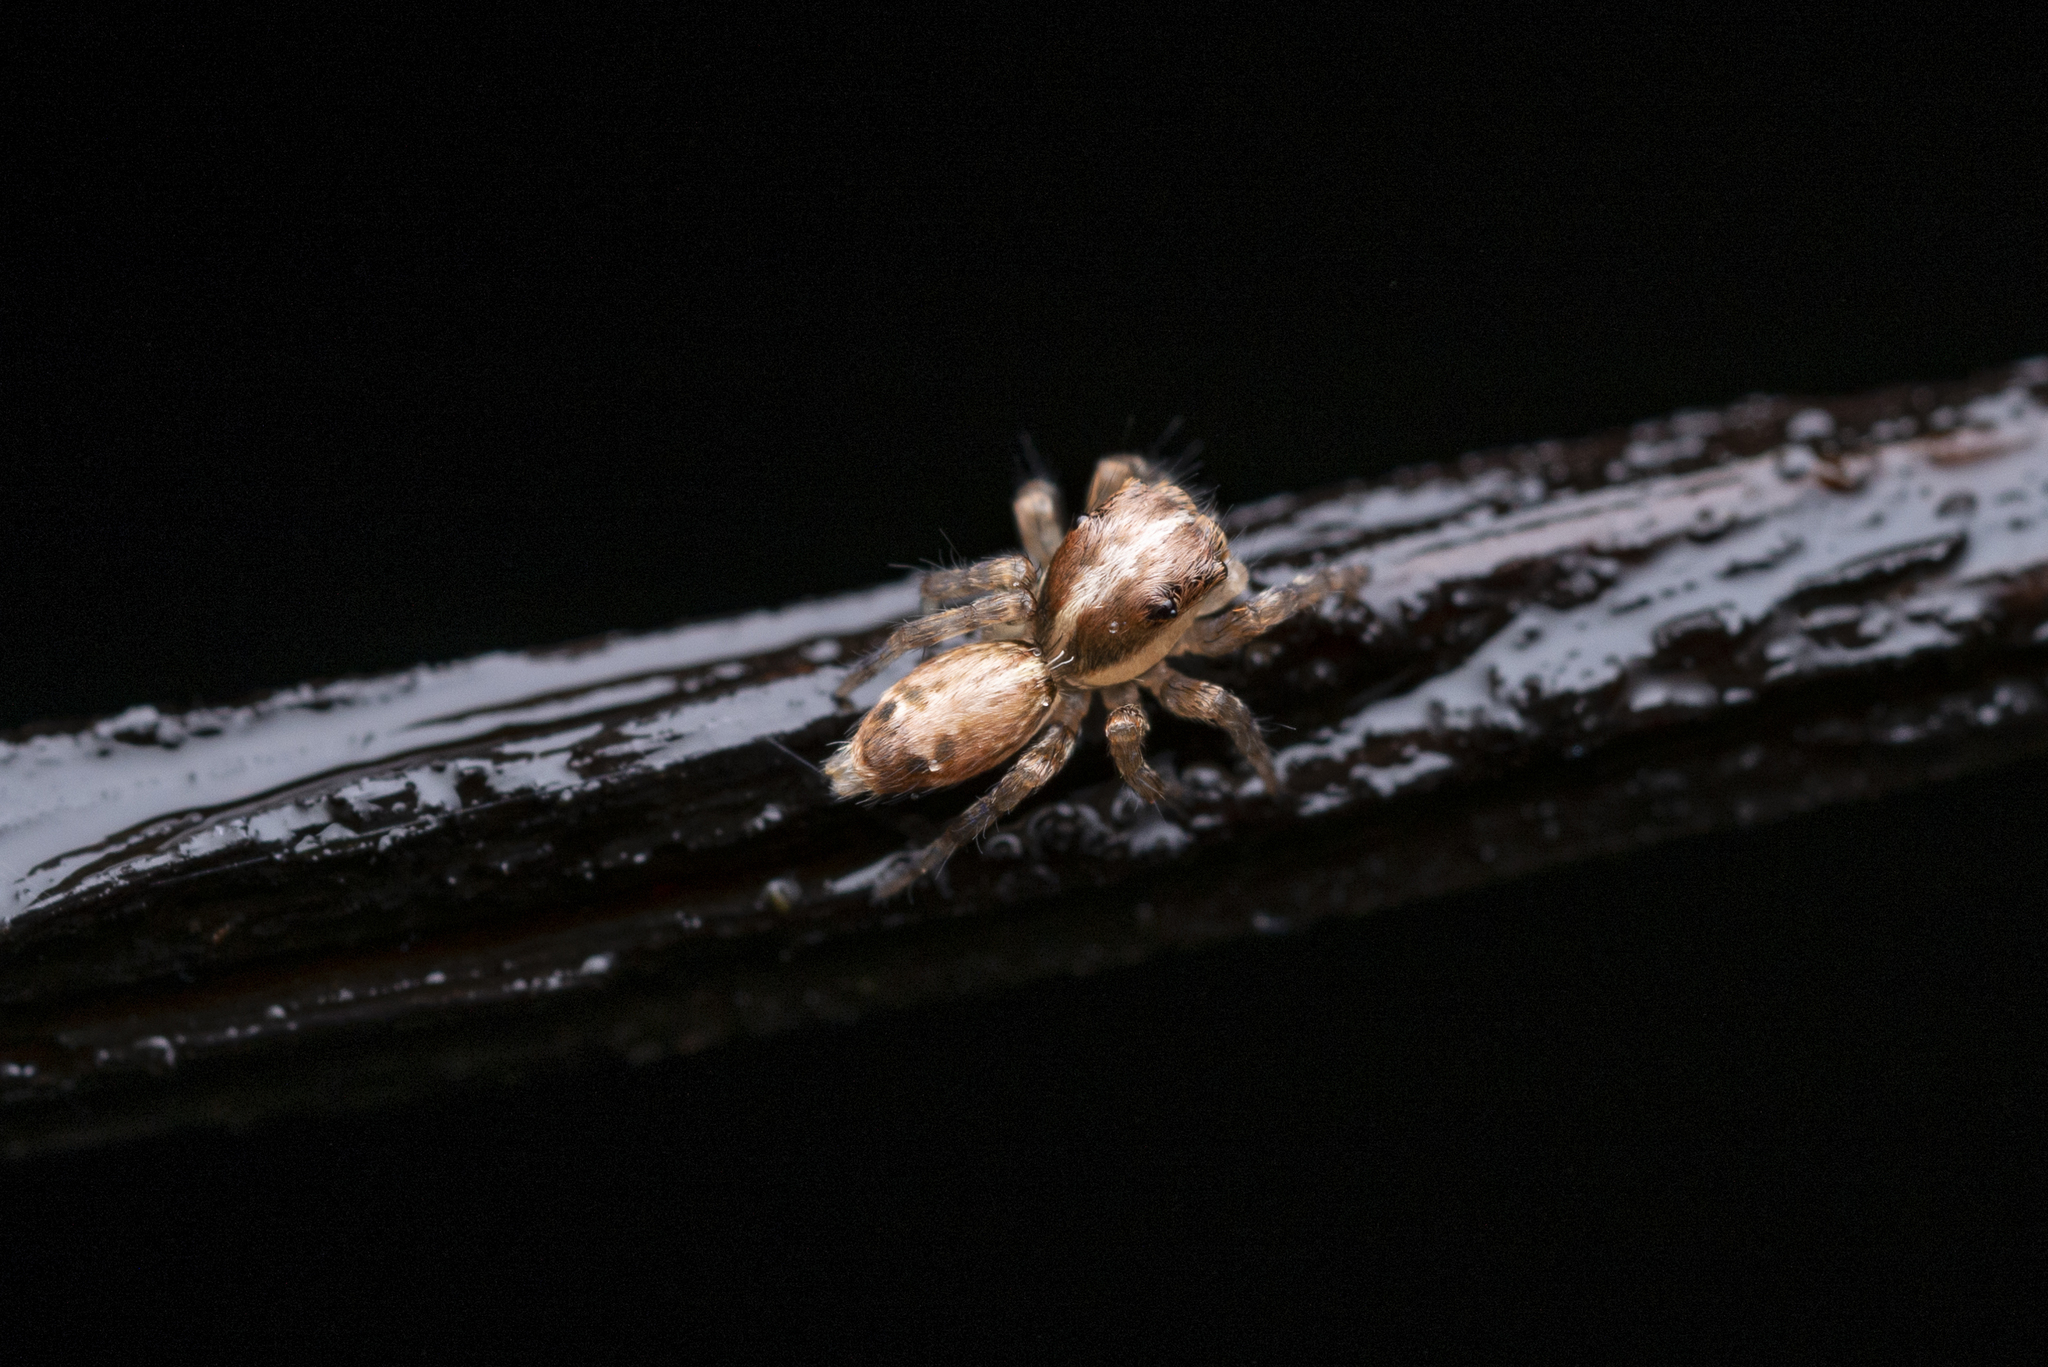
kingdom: Animalia
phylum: Arthropoda
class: Arachnida
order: Araneae
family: Salticidae
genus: Thyene
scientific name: Thyene orientalis
